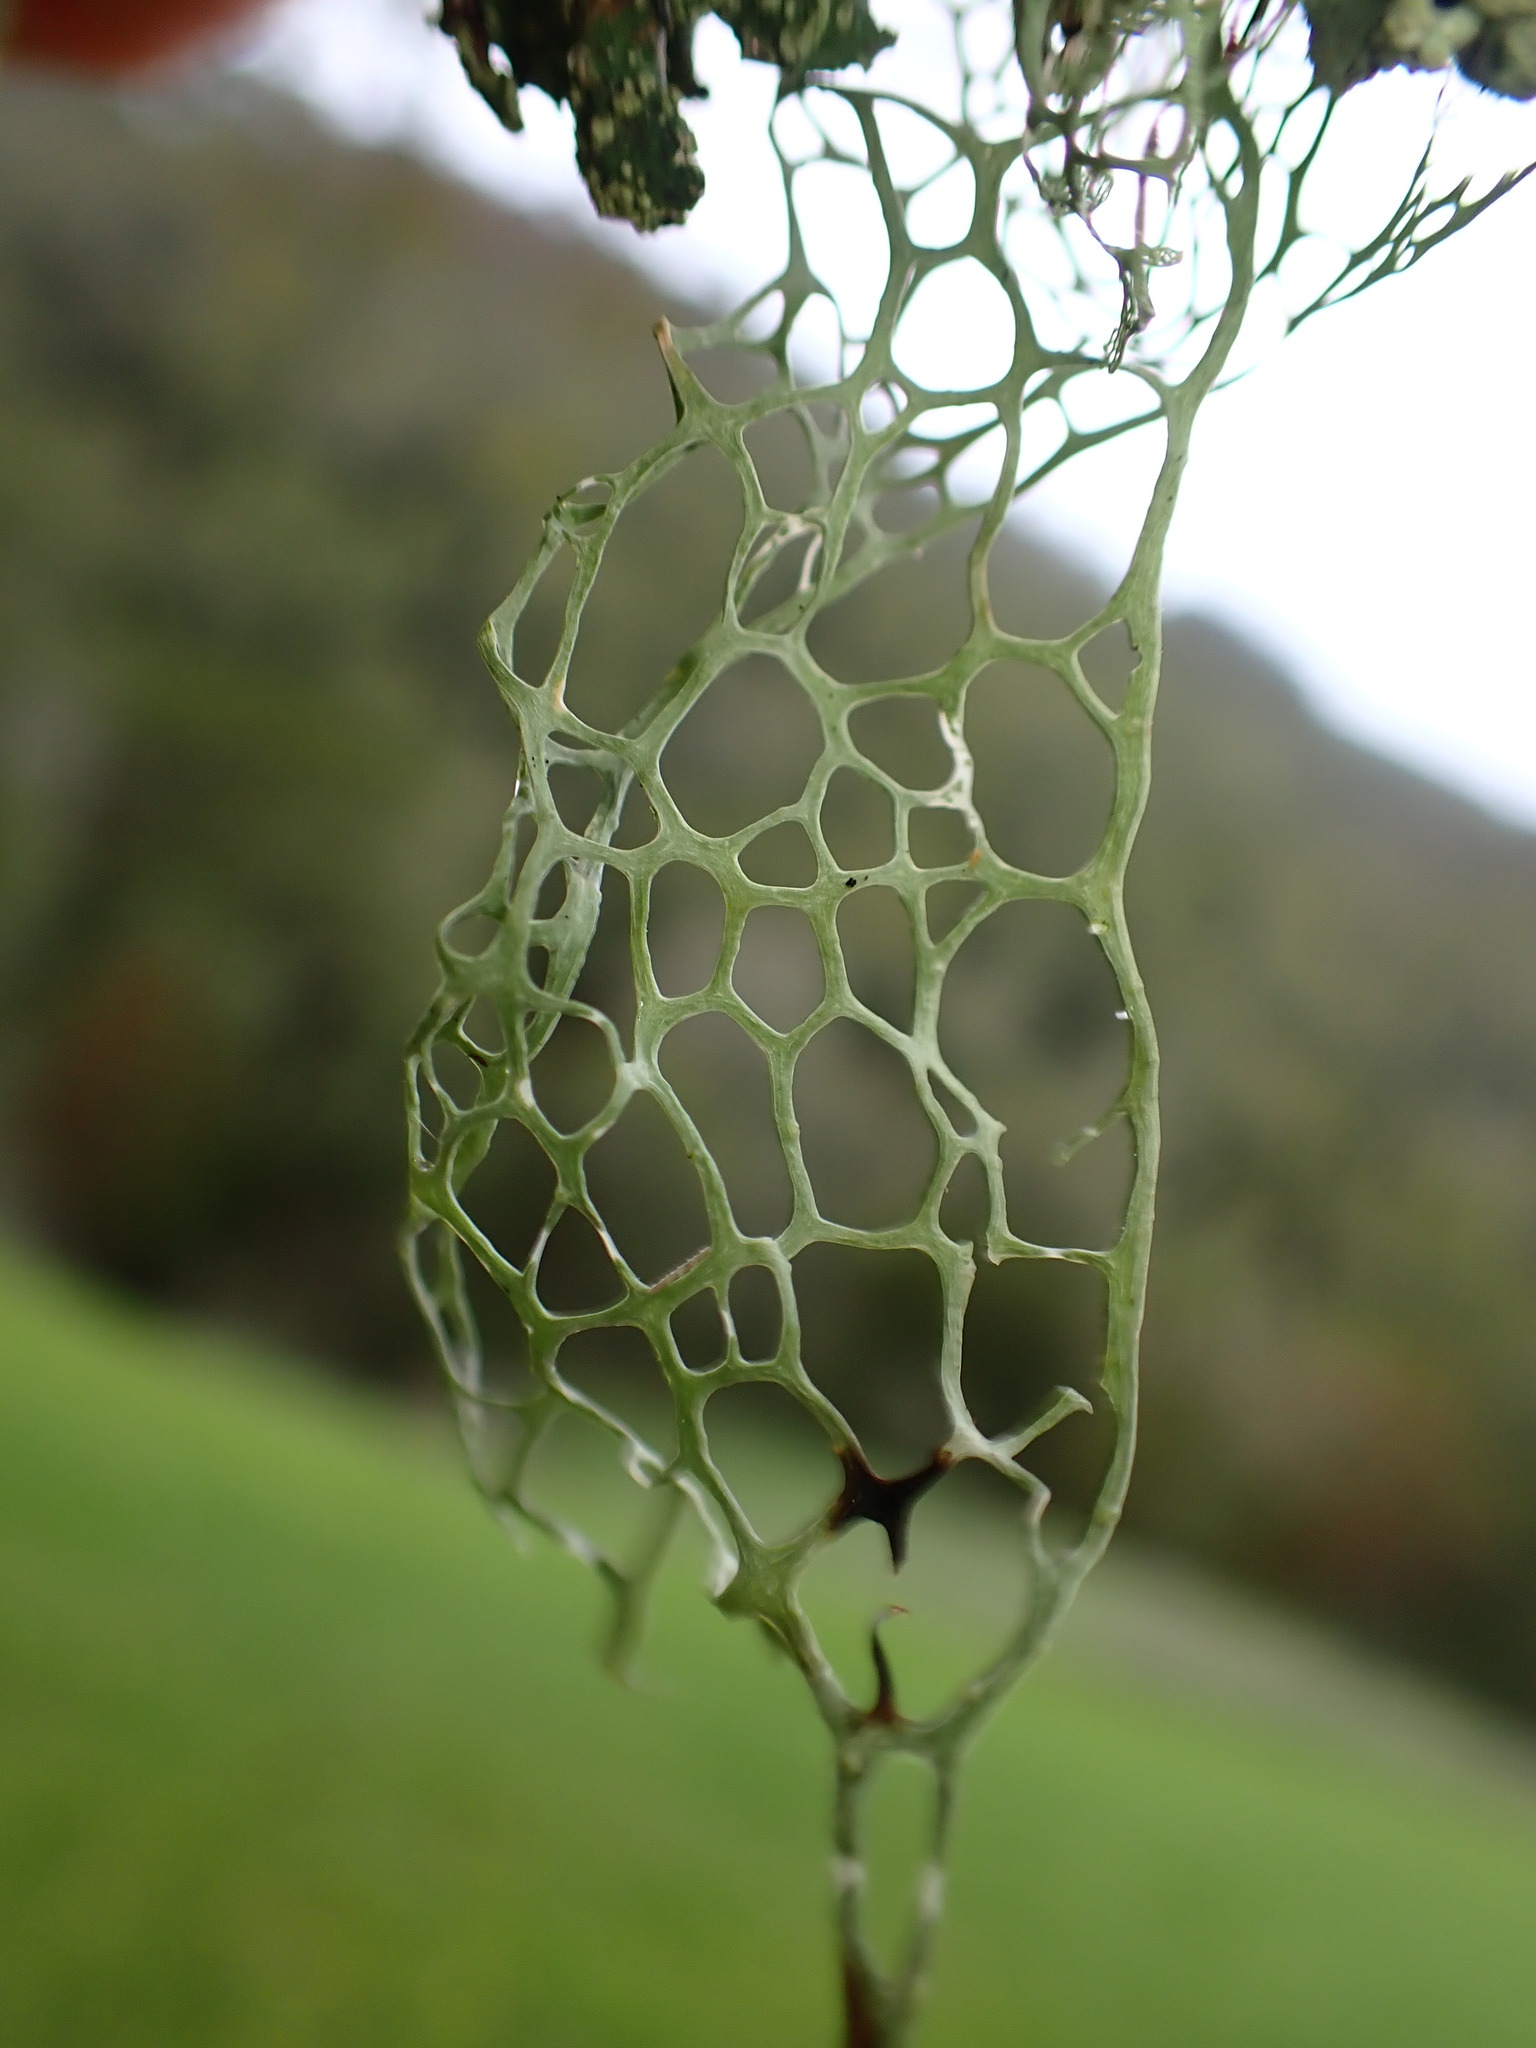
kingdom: Fungi
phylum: Ascomycota
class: Lecanoromycetes
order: Lecanorales
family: Ramalinaceae
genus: Ramalina
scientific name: Ramalina menziesii
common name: Lace lichen
